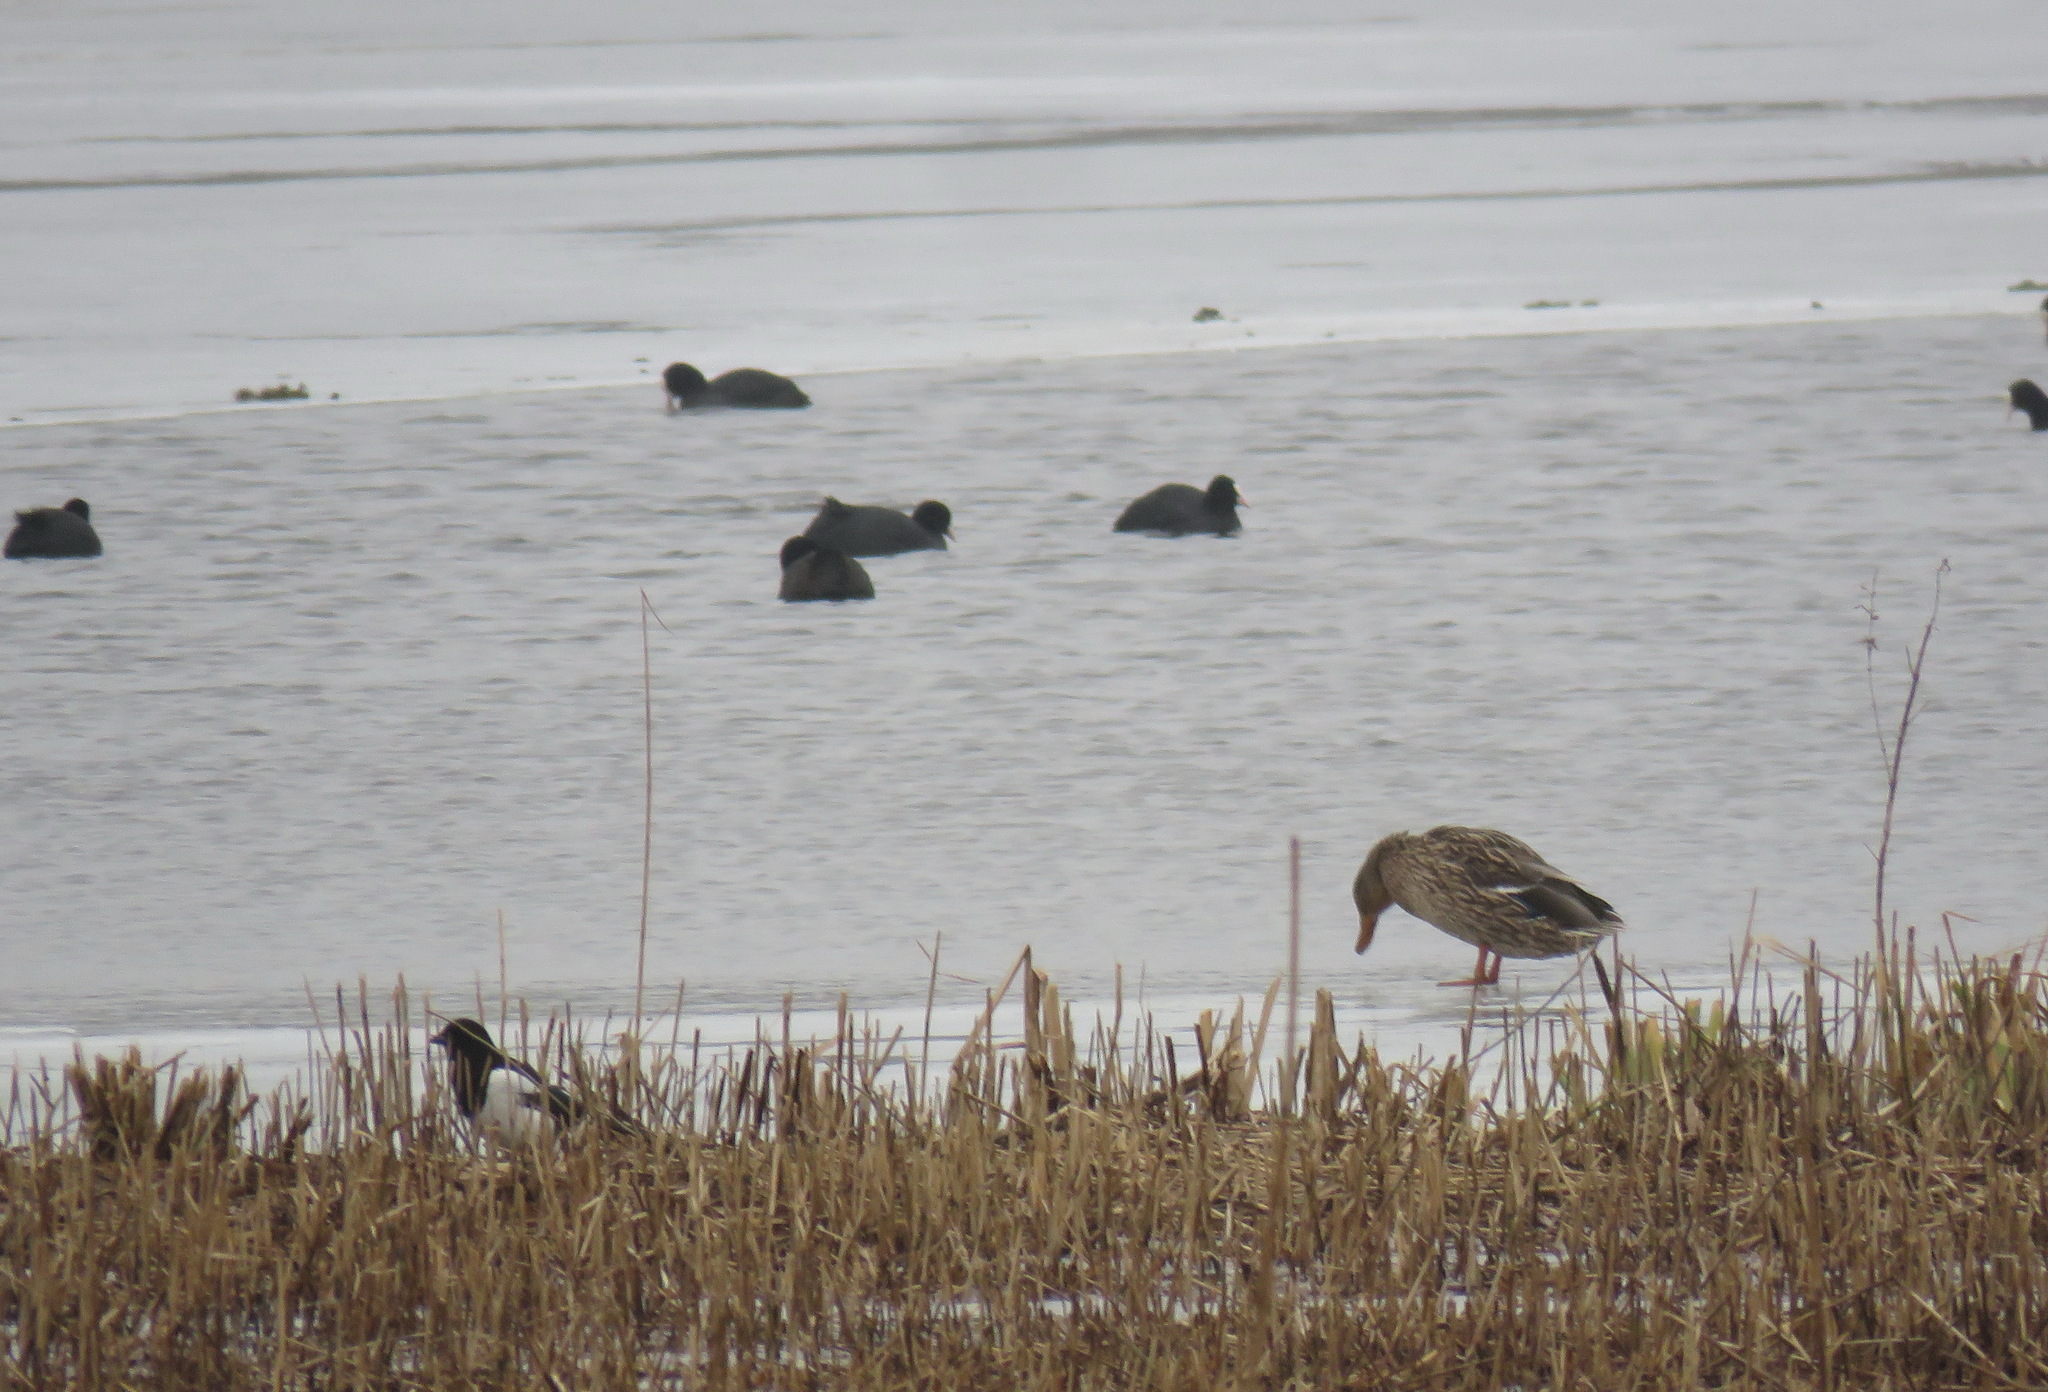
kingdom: Animalia
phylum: Chordata
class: Aves
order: Anseriformes
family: Anatidae
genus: Anas
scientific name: Anas platyrhynchos
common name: Mallard
